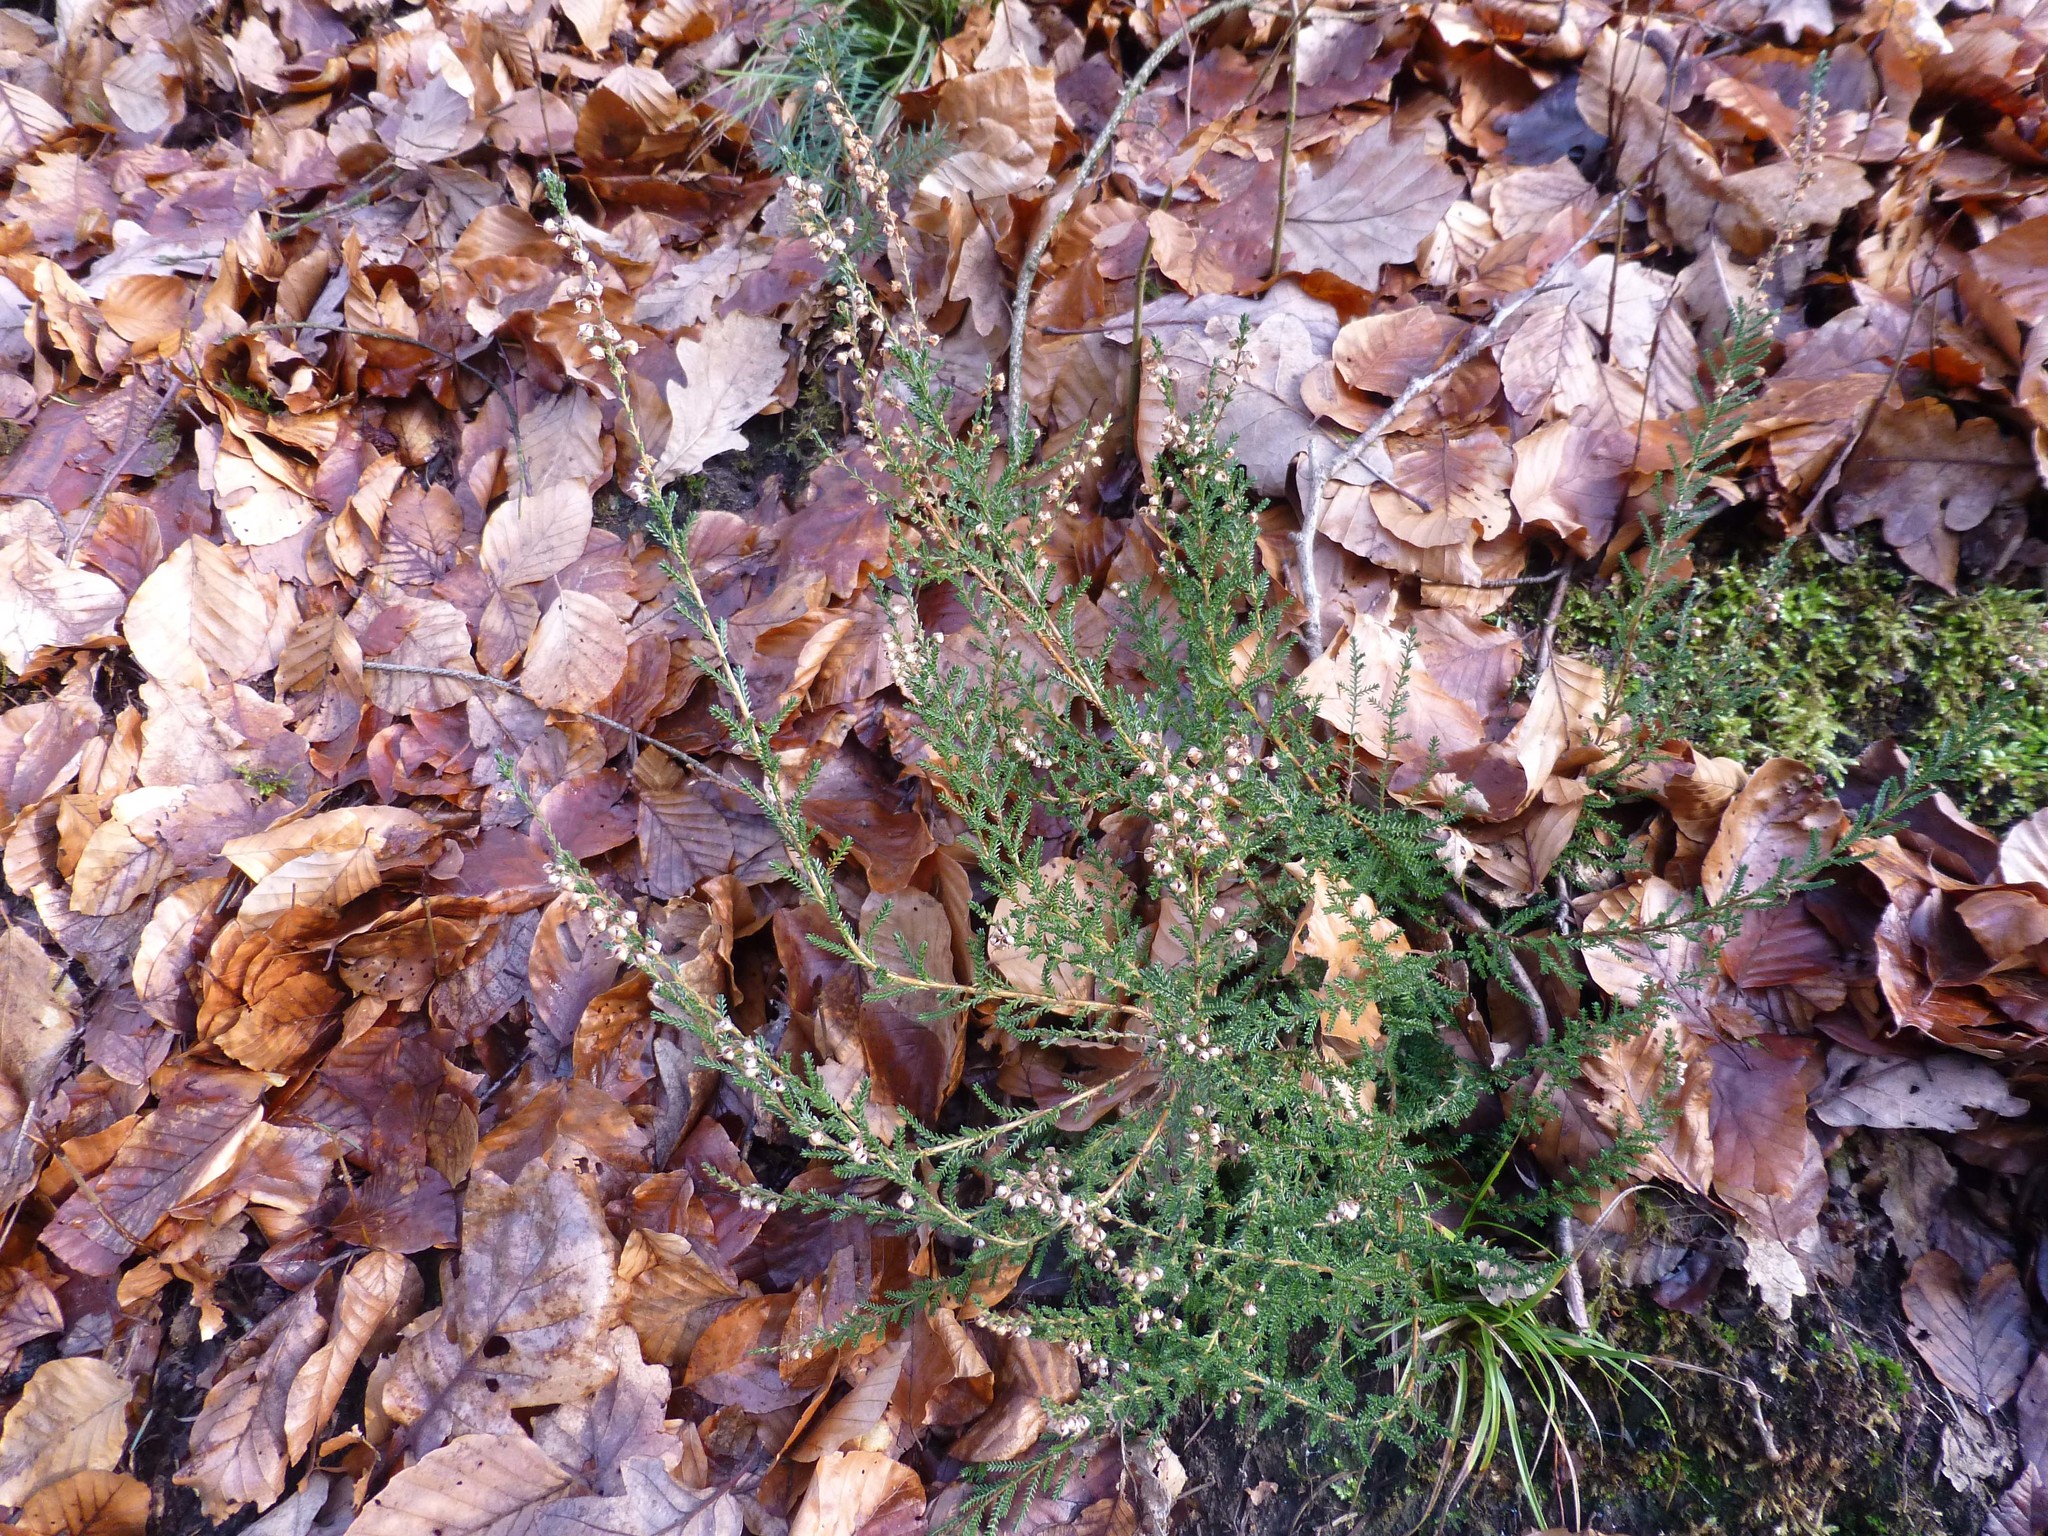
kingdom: Plantae
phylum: Tracheophyta
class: Magnoliopsida
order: Ericales
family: Ericaceae
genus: Calluna
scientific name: Calluna vulgaris
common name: Heather
